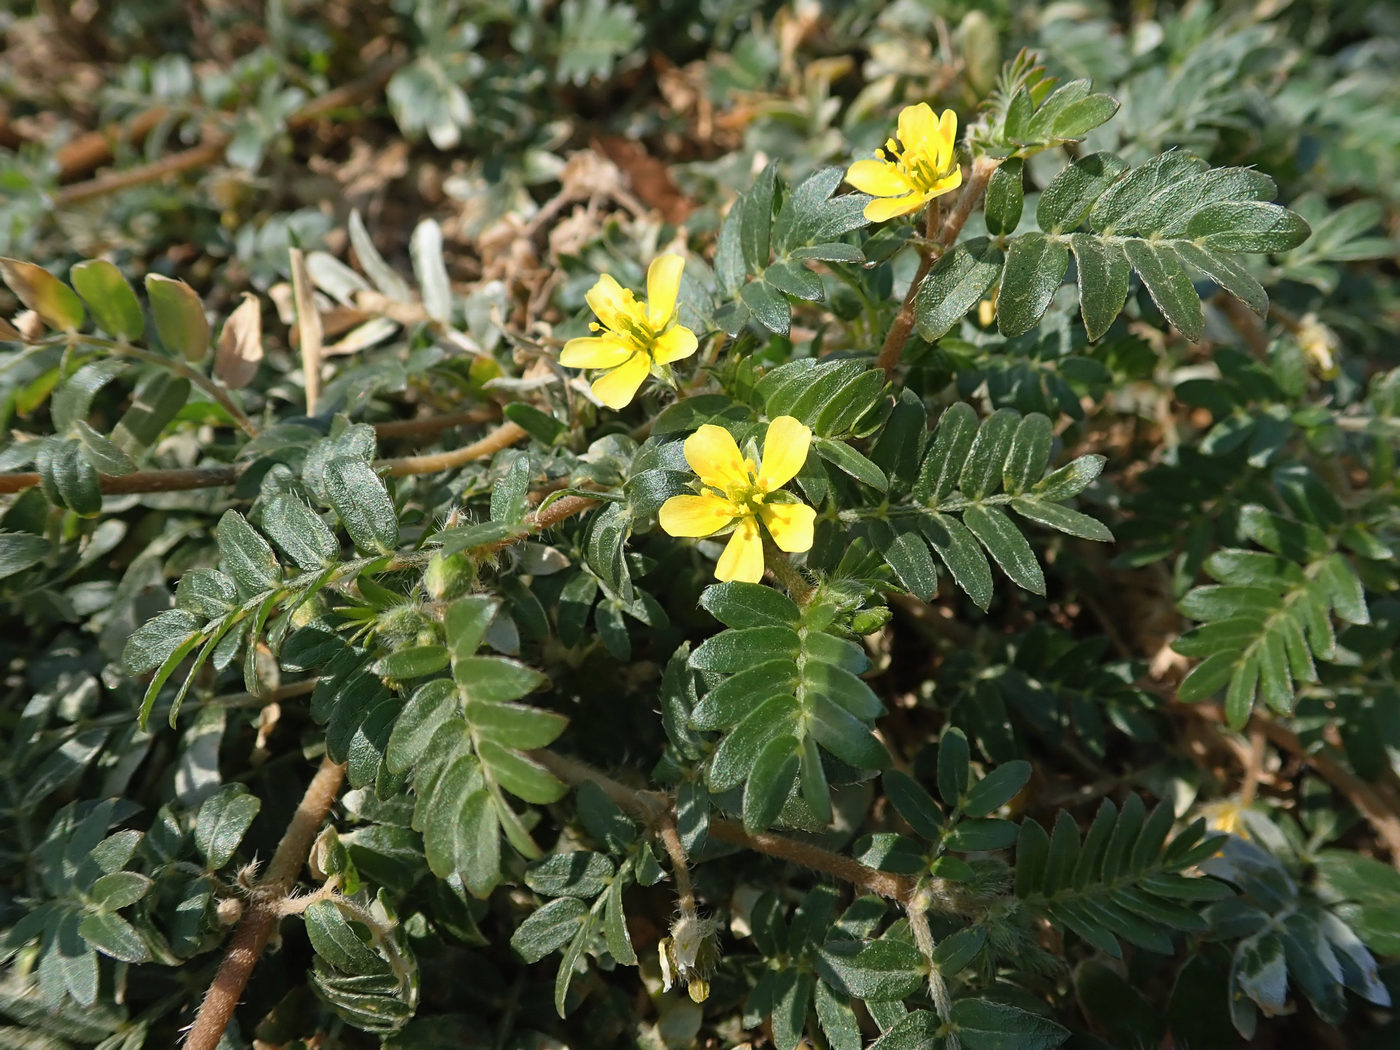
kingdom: Plantae
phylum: Tracheophyta
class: Magnoliopsida
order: Zygophyllales
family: Zygophyllaceae
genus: Tribulus
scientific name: Tribulus terrestris
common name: Puncturevine
